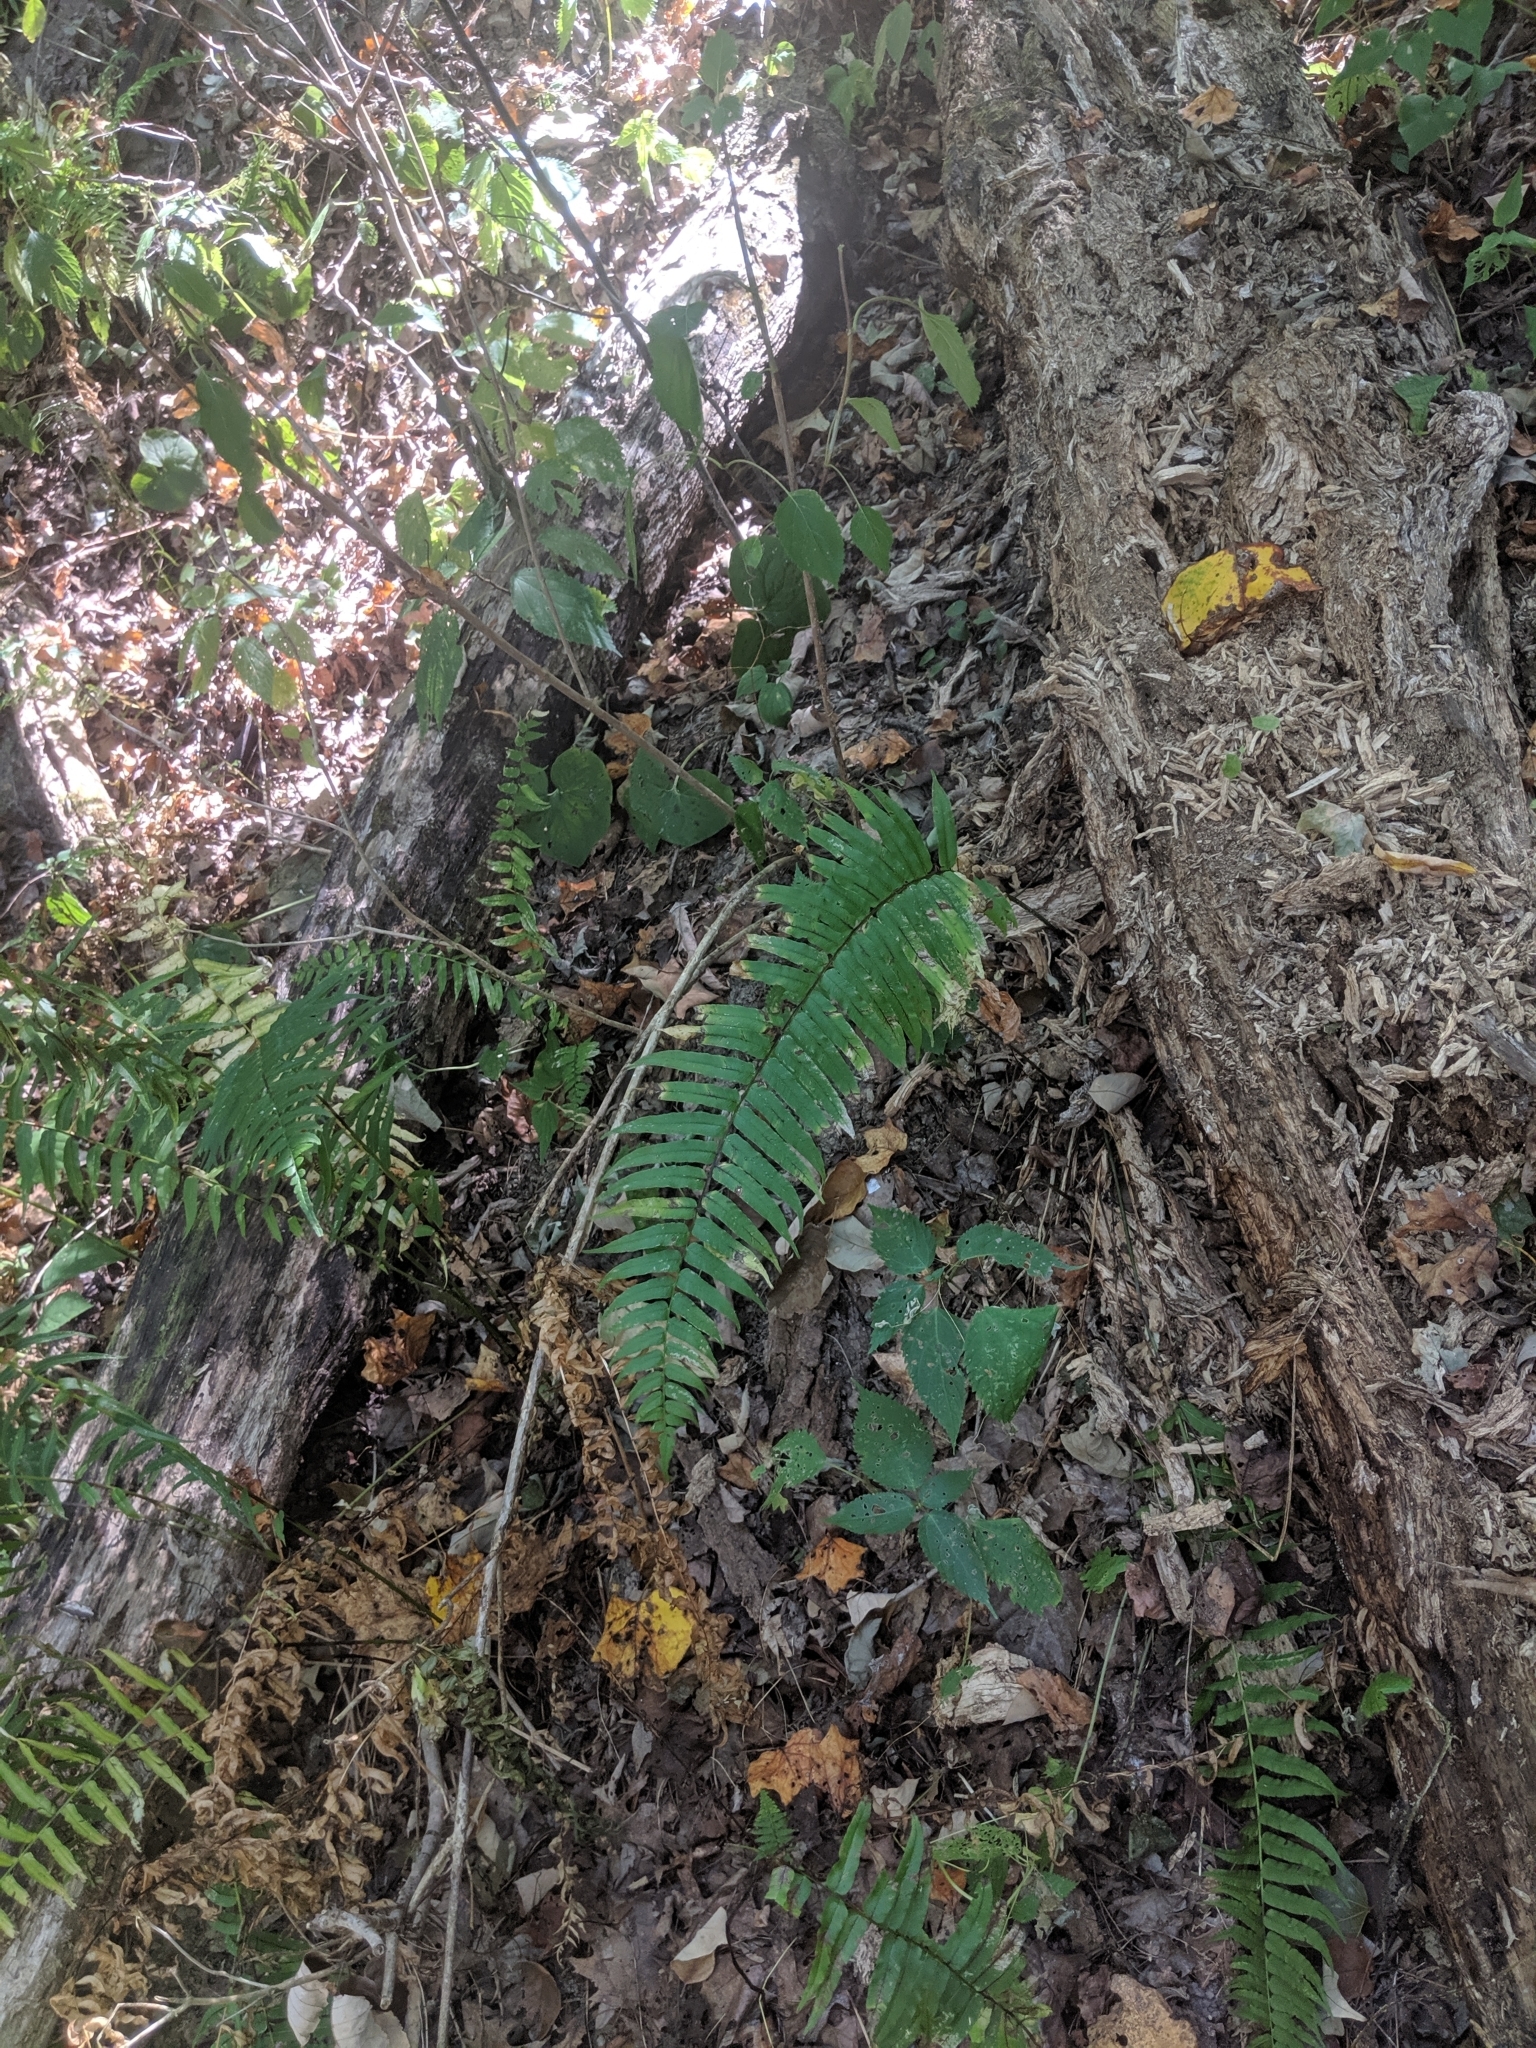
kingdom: Plantae
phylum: Tracheophyta
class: Polypodiopsida
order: Polypodiales
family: Diplaziopsidaceae
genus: Homalosorus
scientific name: Homalosorus pycnocarpos
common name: Glade fern
